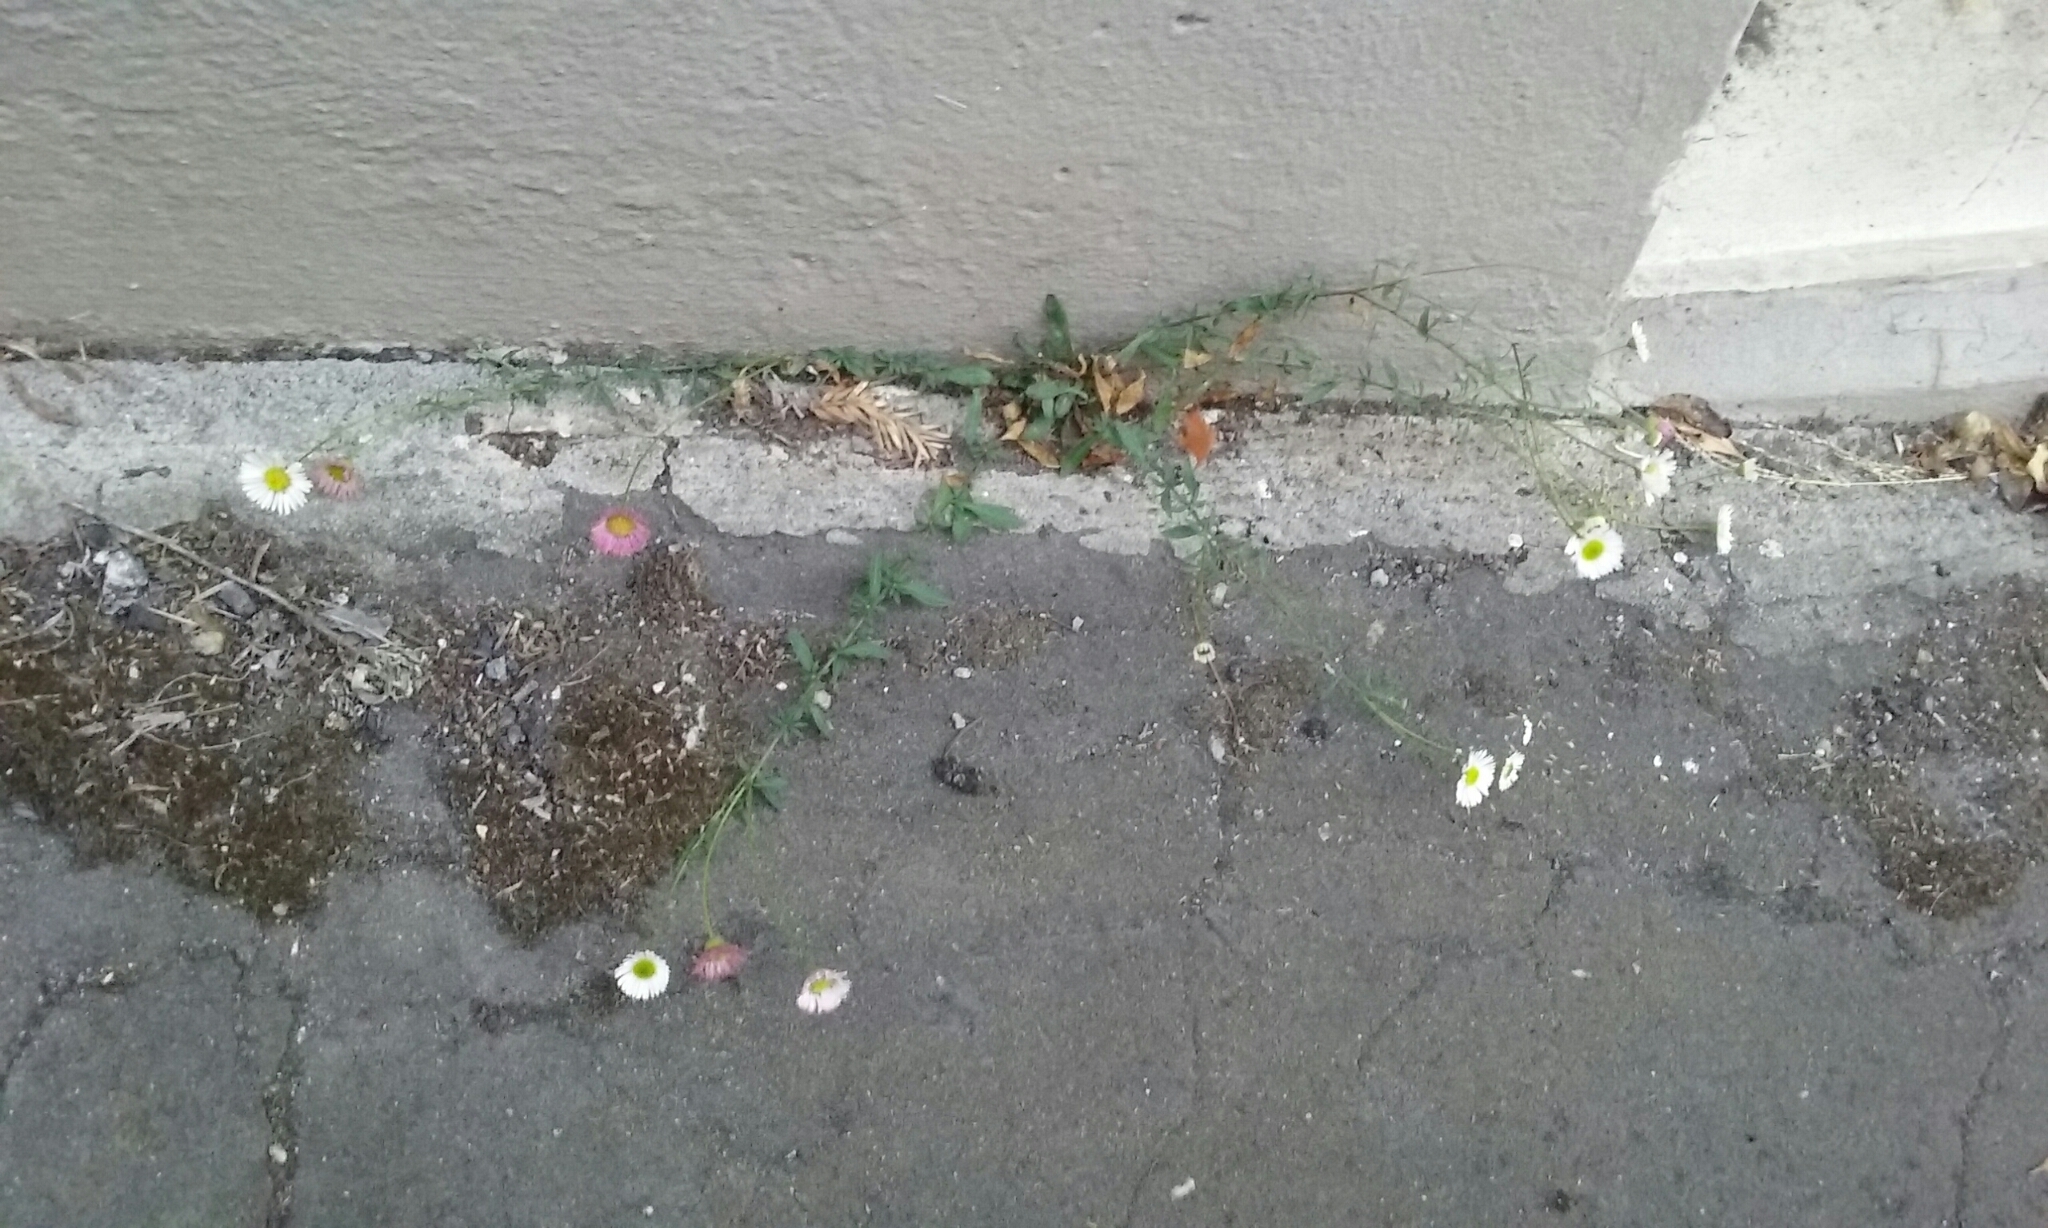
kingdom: Plantae
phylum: Tracheophyta
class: Magnoliopsida
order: Asterales
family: Asteraceae
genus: Erigeron
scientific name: Erigeron karvinskianus
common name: Mexican fleabane
